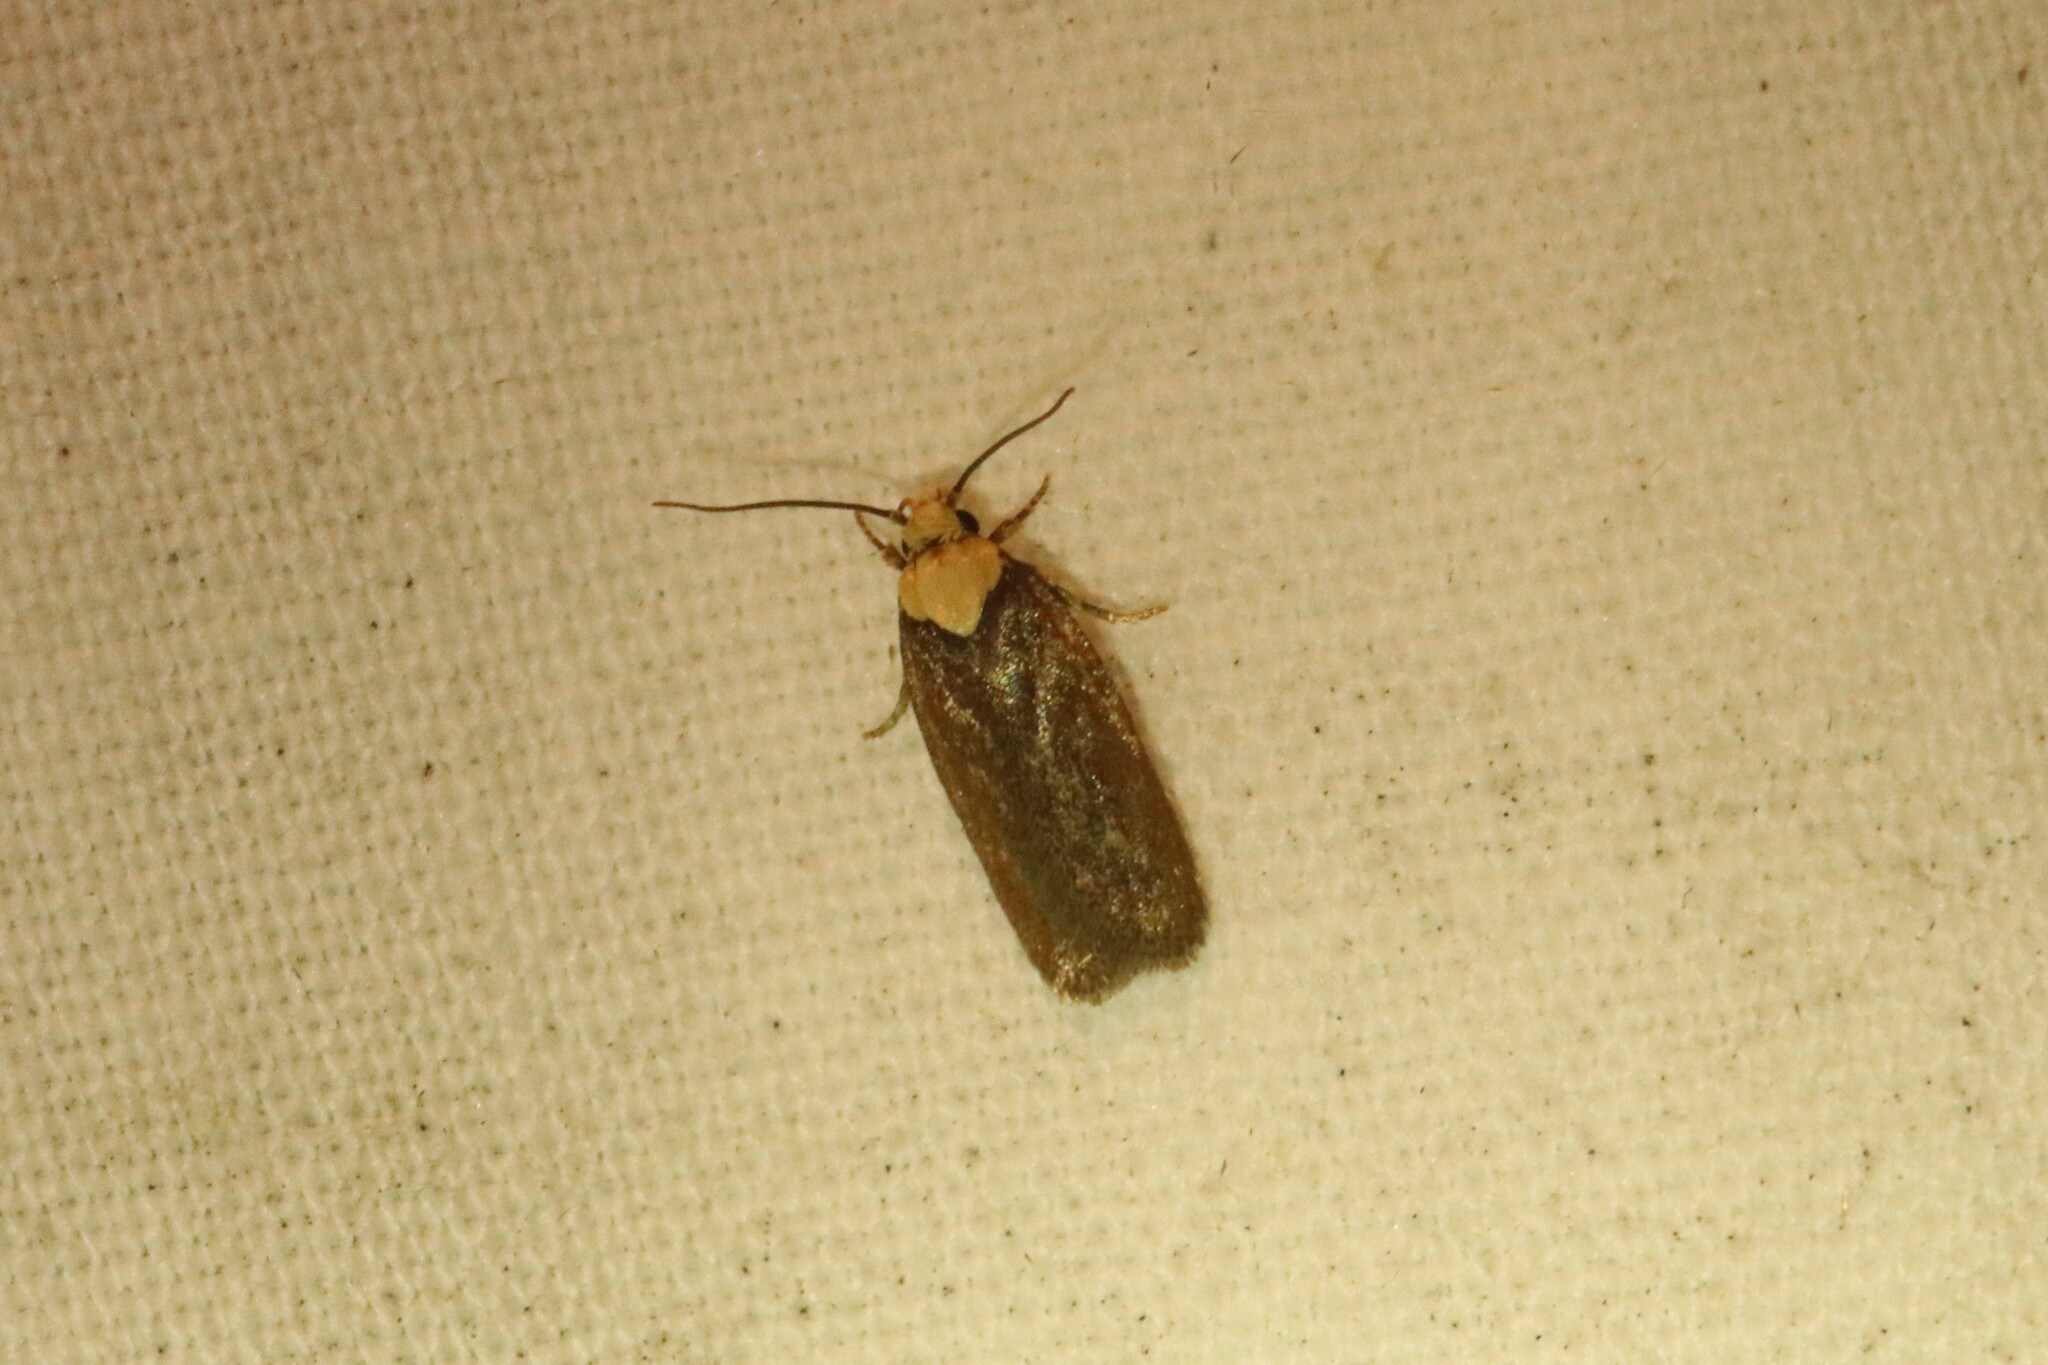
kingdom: Animalia
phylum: Arthropoda
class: Insecta
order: Lepidoptera
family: Depressariidae
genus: Depressaria
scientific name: Depressaria depressana
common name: Lost flat-body
